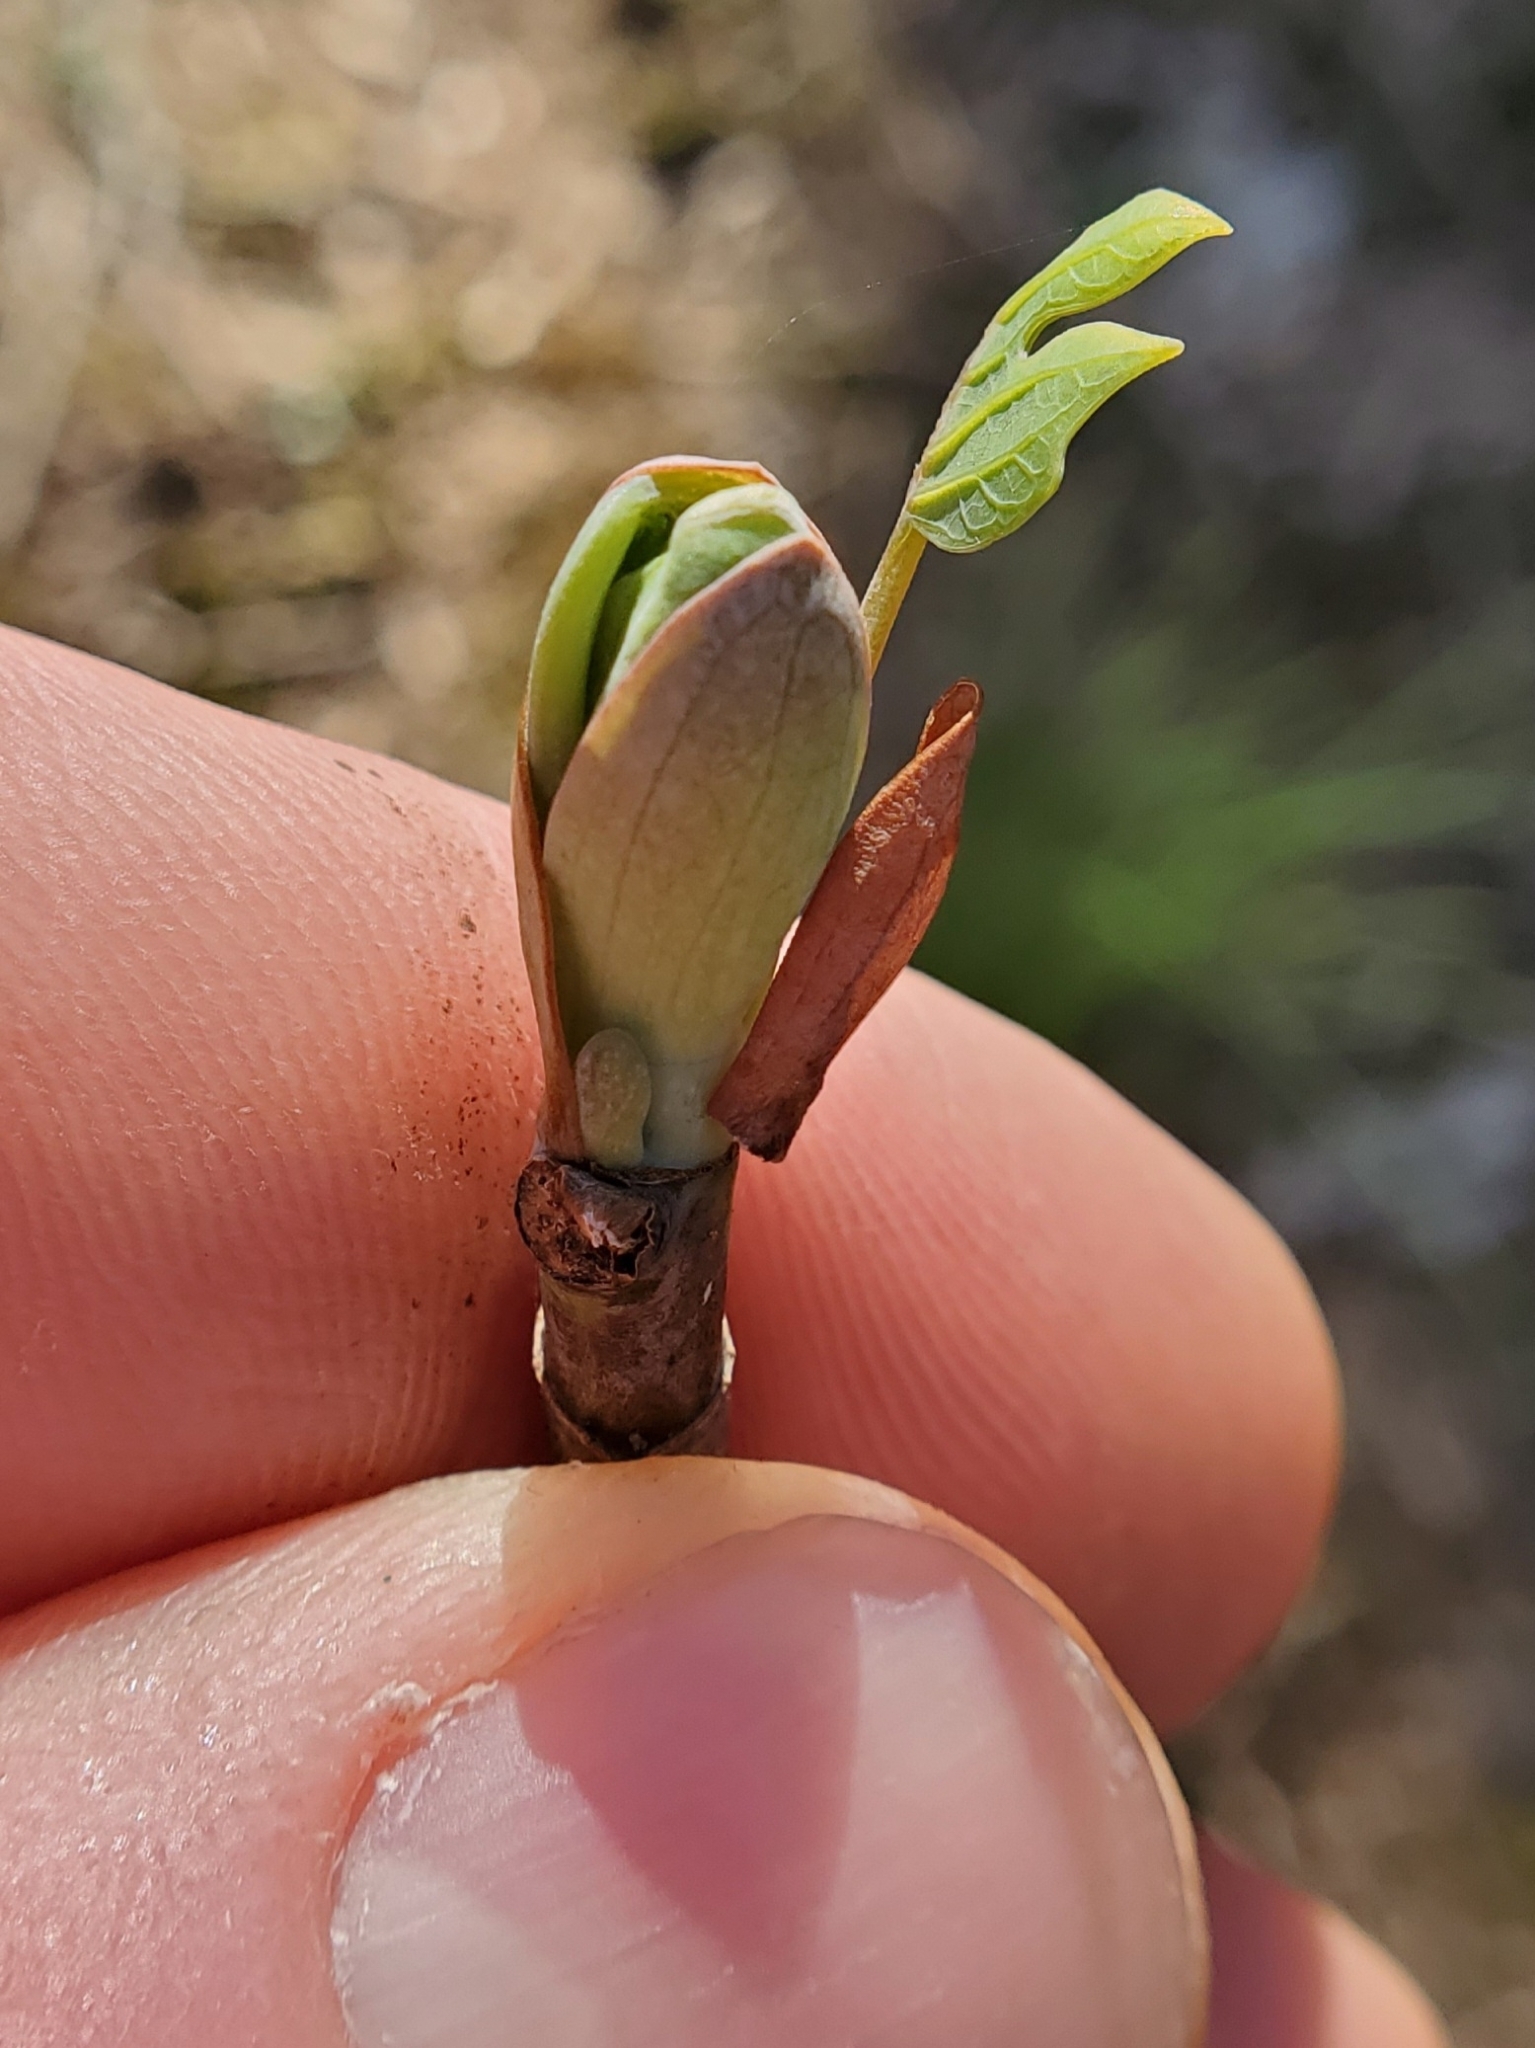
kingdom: Plantae
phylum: Tracheophyta
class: Magnoliopsida
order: Magnoliales
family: Magnoliaceae
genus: Liriodendron
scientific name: Liriodendron tulipifera
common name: Tulip tree
